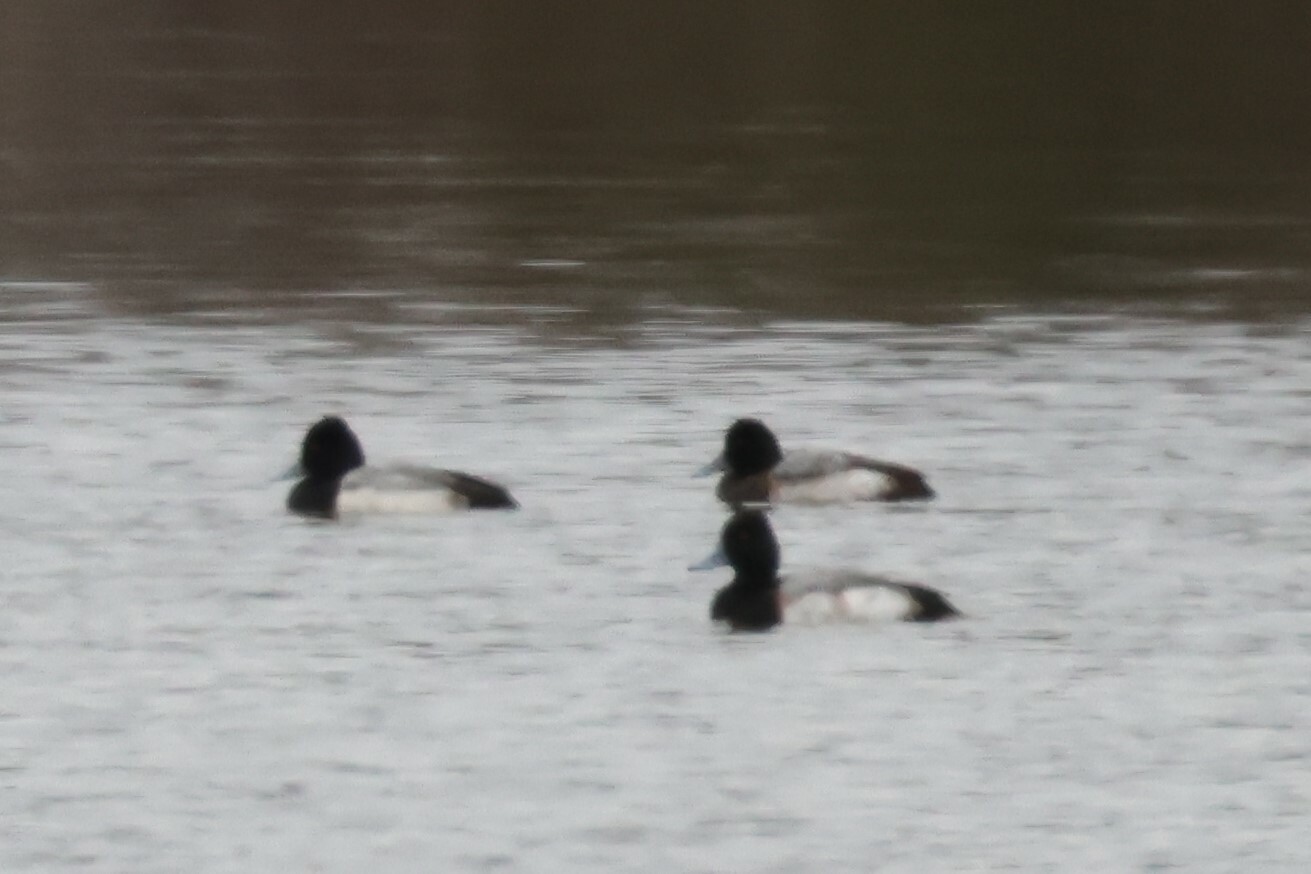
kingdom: Animalia
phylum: Chordata
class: Aves
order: Anseriformes
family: Anatidae
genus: Aythya
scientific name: Aythya affinis
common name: Lesser scaup
